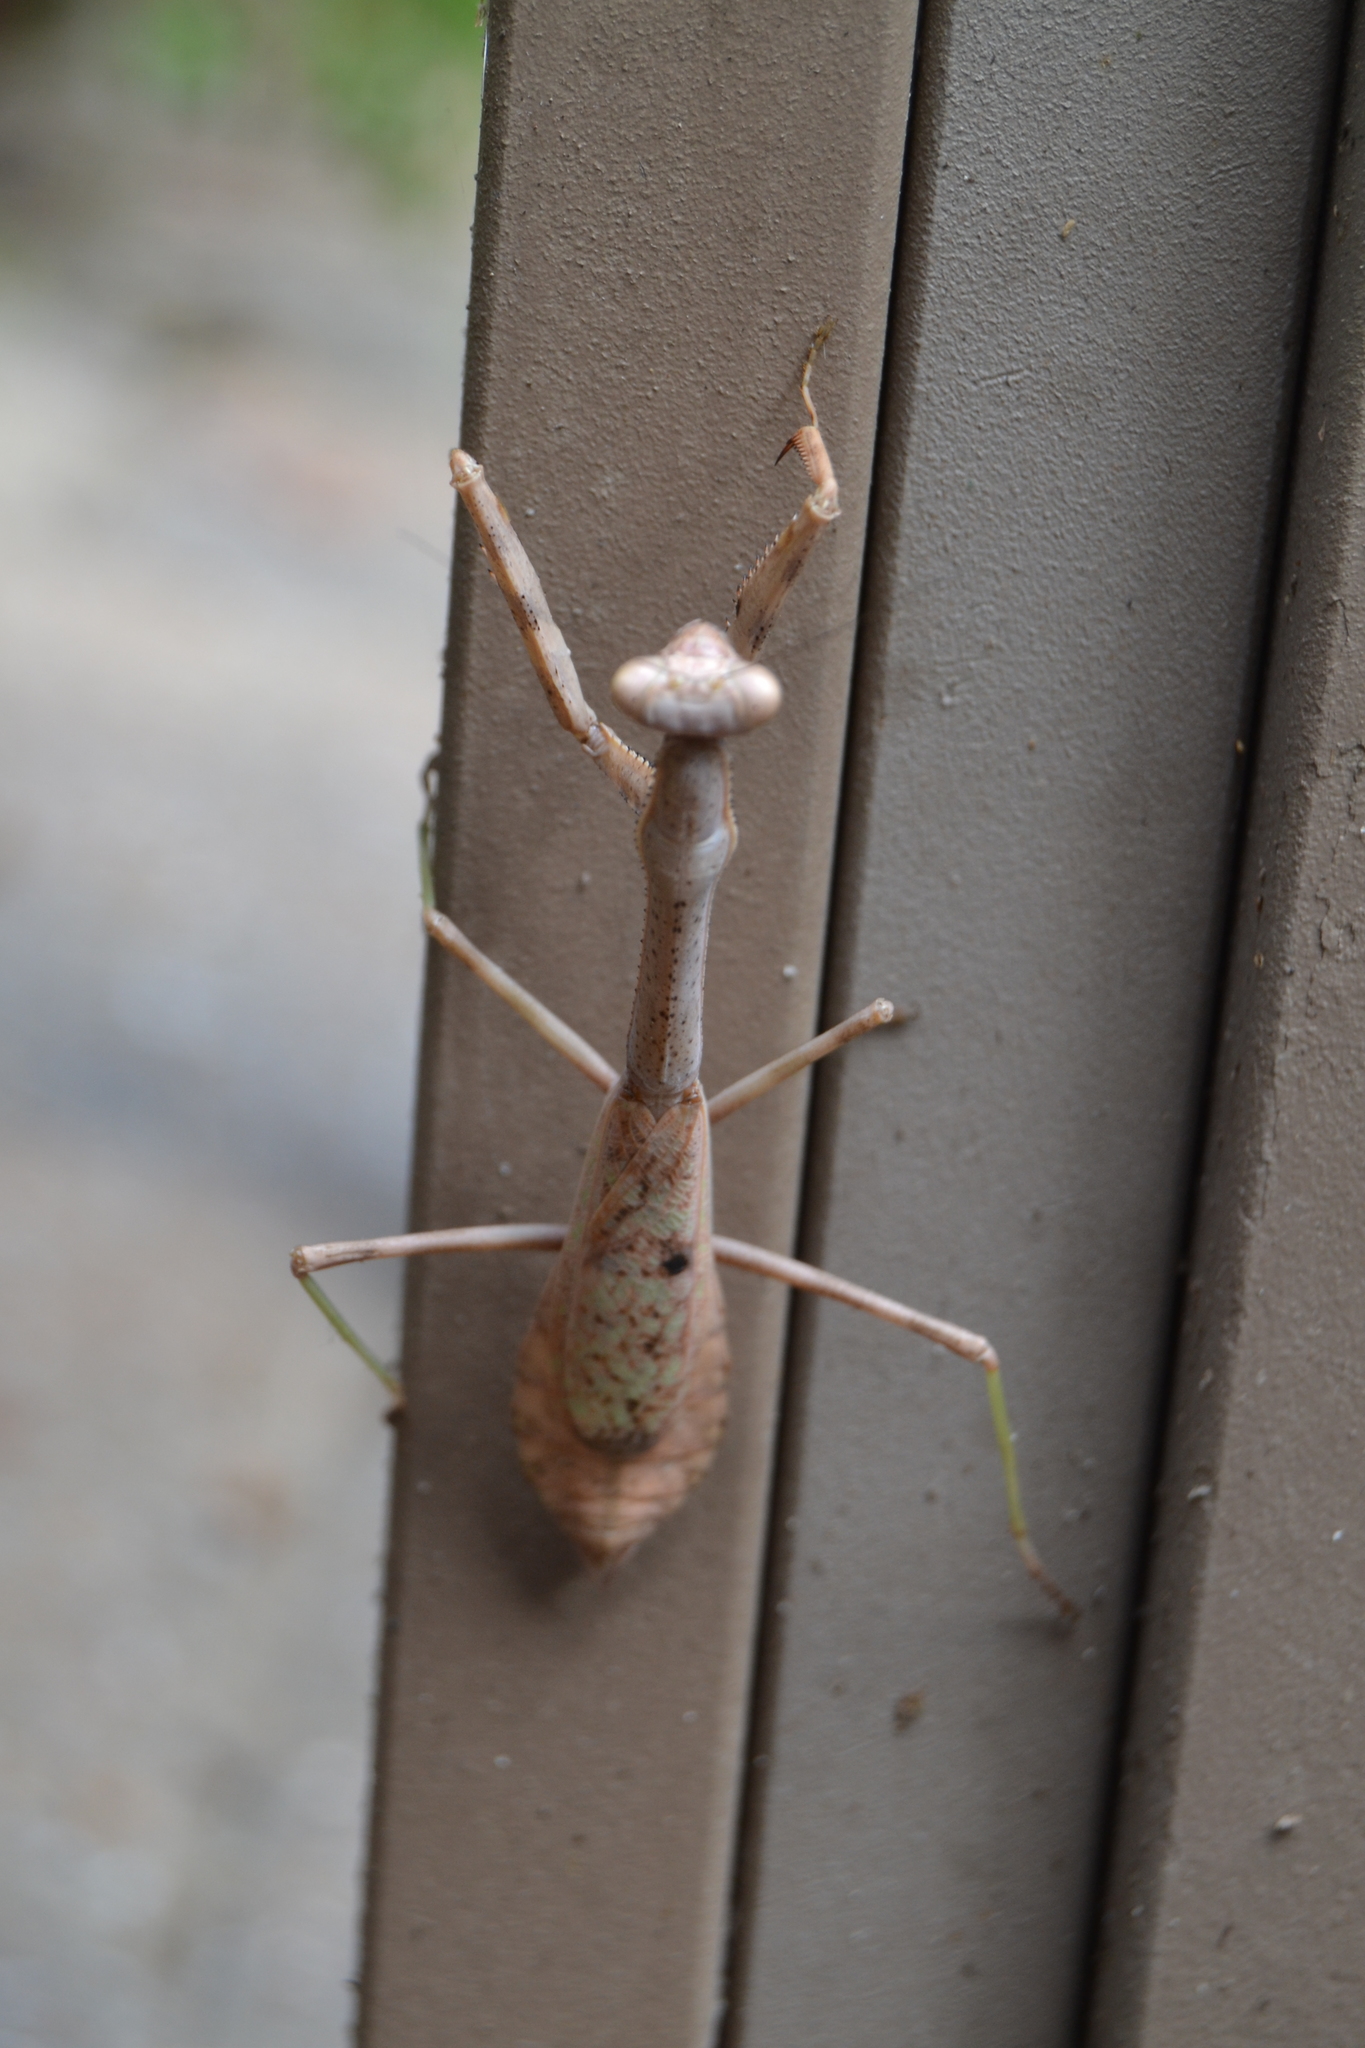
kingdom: Animalia
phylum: Arthropoda
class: Insecta
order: Mantodea
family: Mantidae
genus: Stagmomantis
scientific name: Stagmomantis carolina
